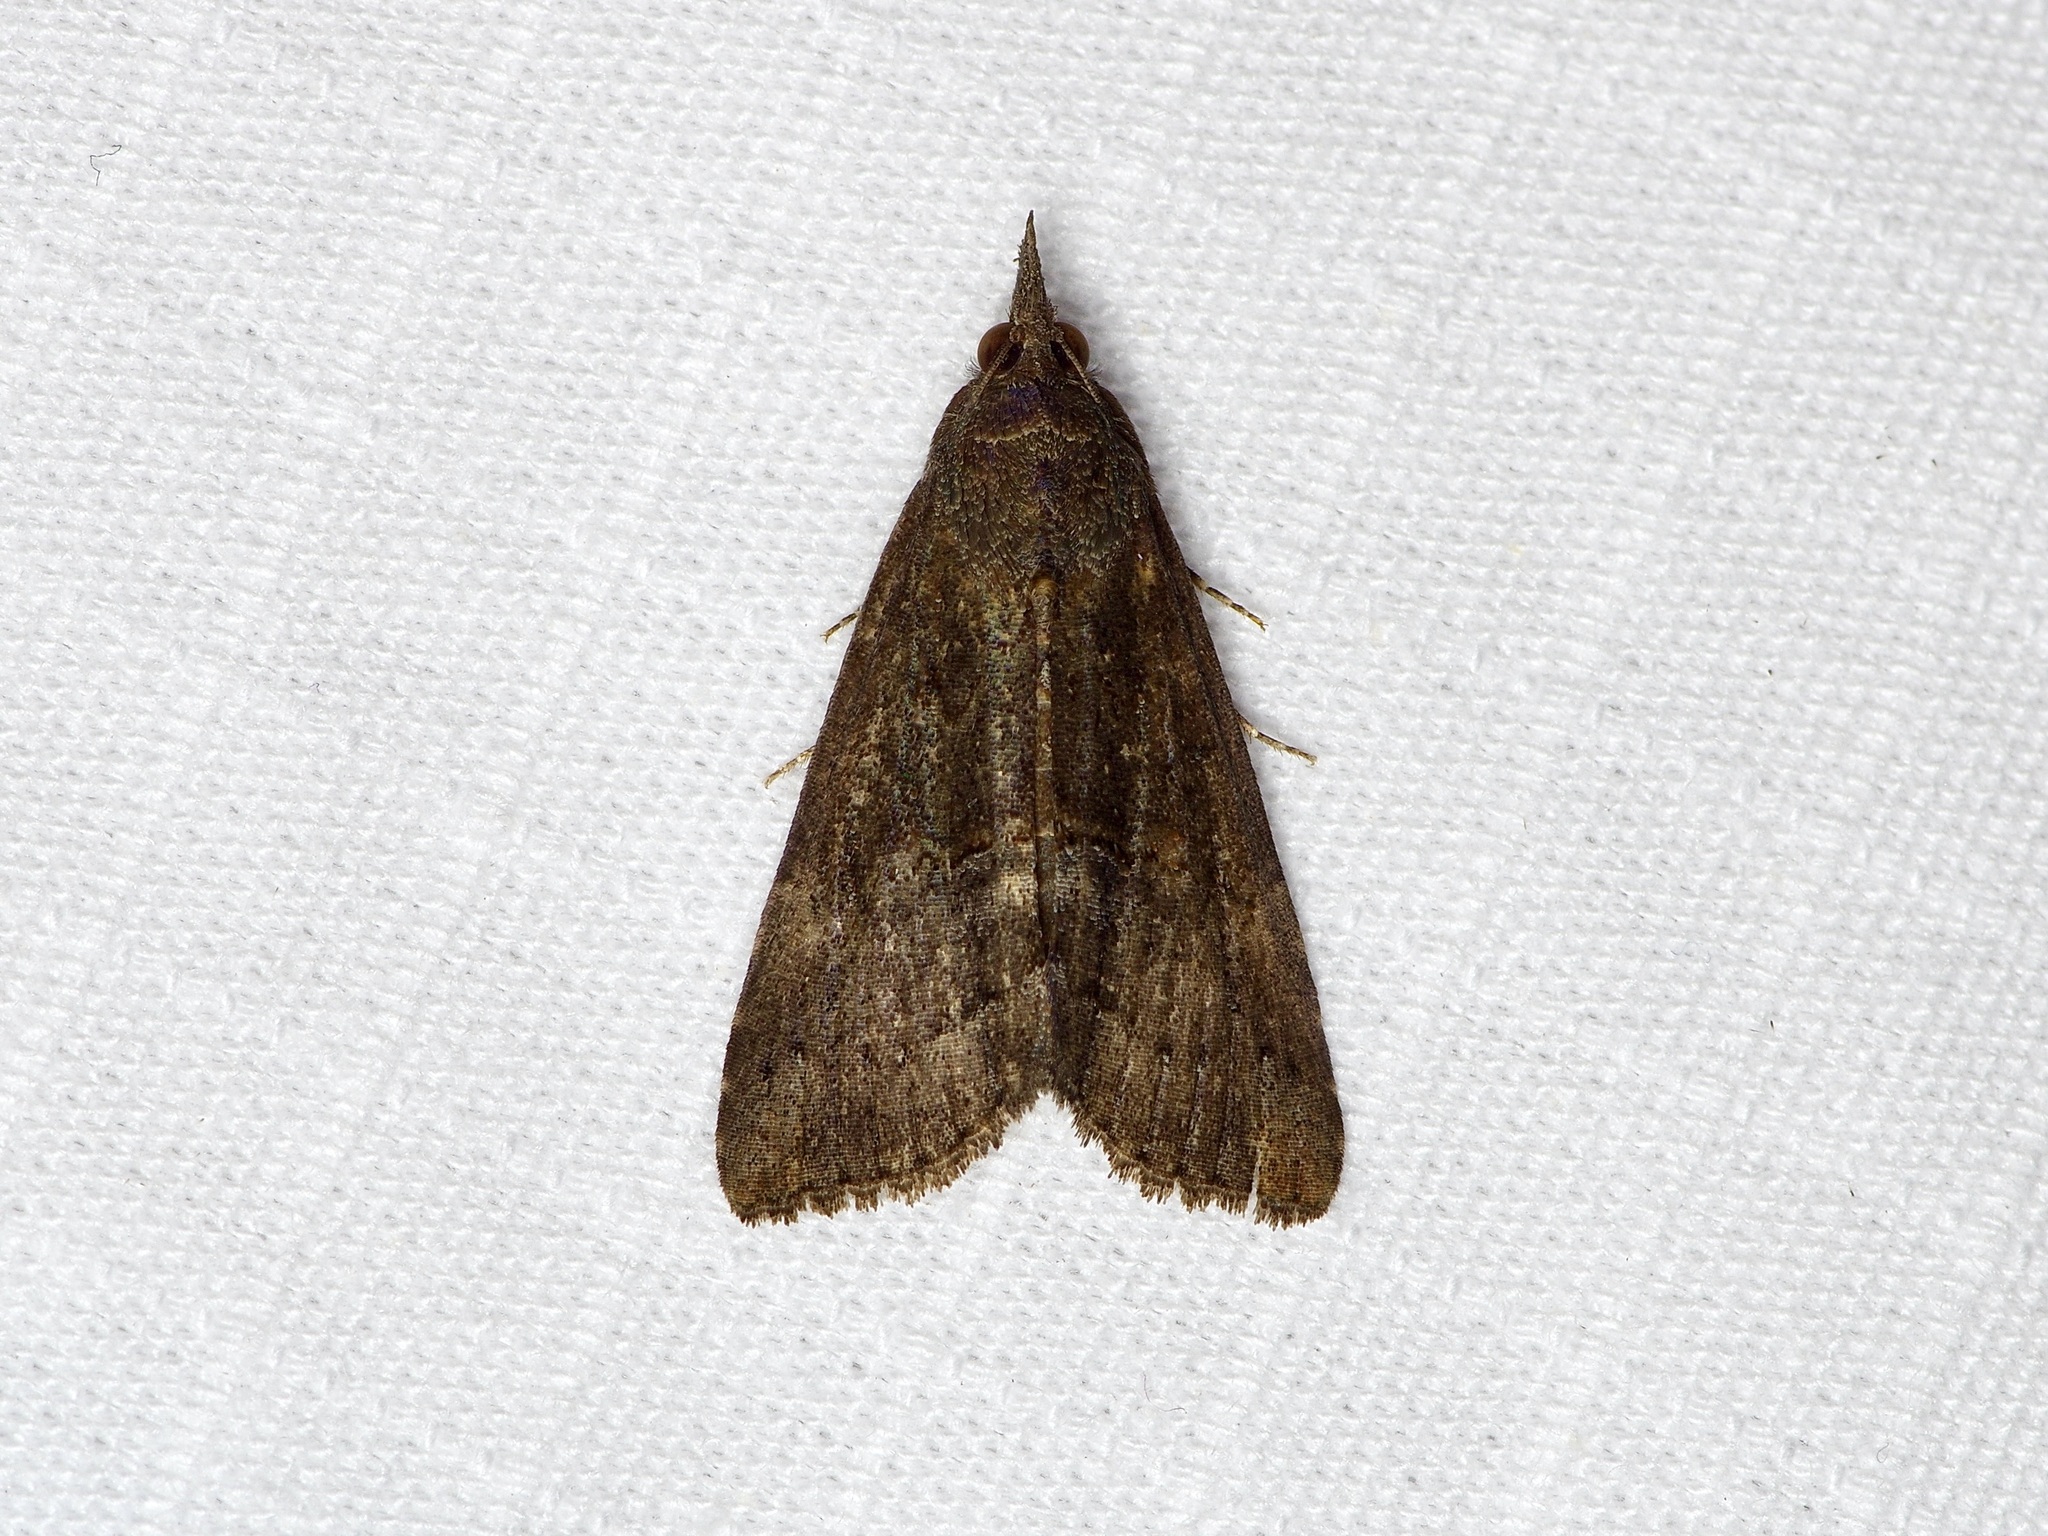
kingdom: Animalia
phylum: Arthropoda
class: Insecta
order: Lepidoptera
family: Erebidae
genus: Hypena
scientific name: Hypena scabra
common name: Green cloverworm
